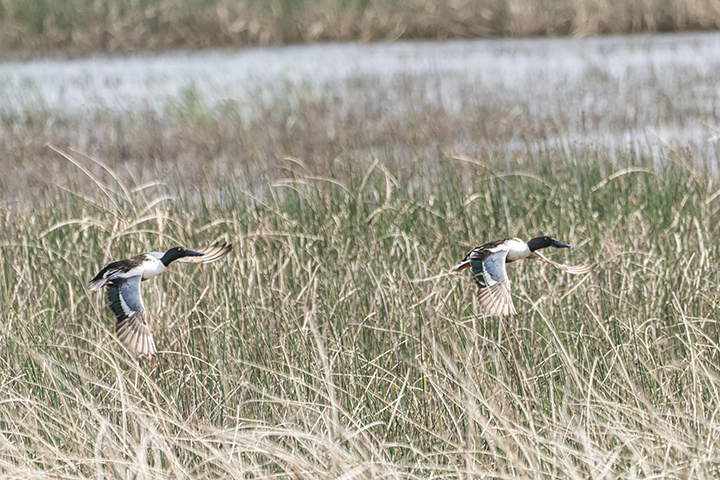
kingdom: Animalia
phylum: Chordata
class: Aves
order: Anseriformes
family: Anatidae
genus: Spatula
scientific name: Spatula clypeata
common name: Northern shoveler
